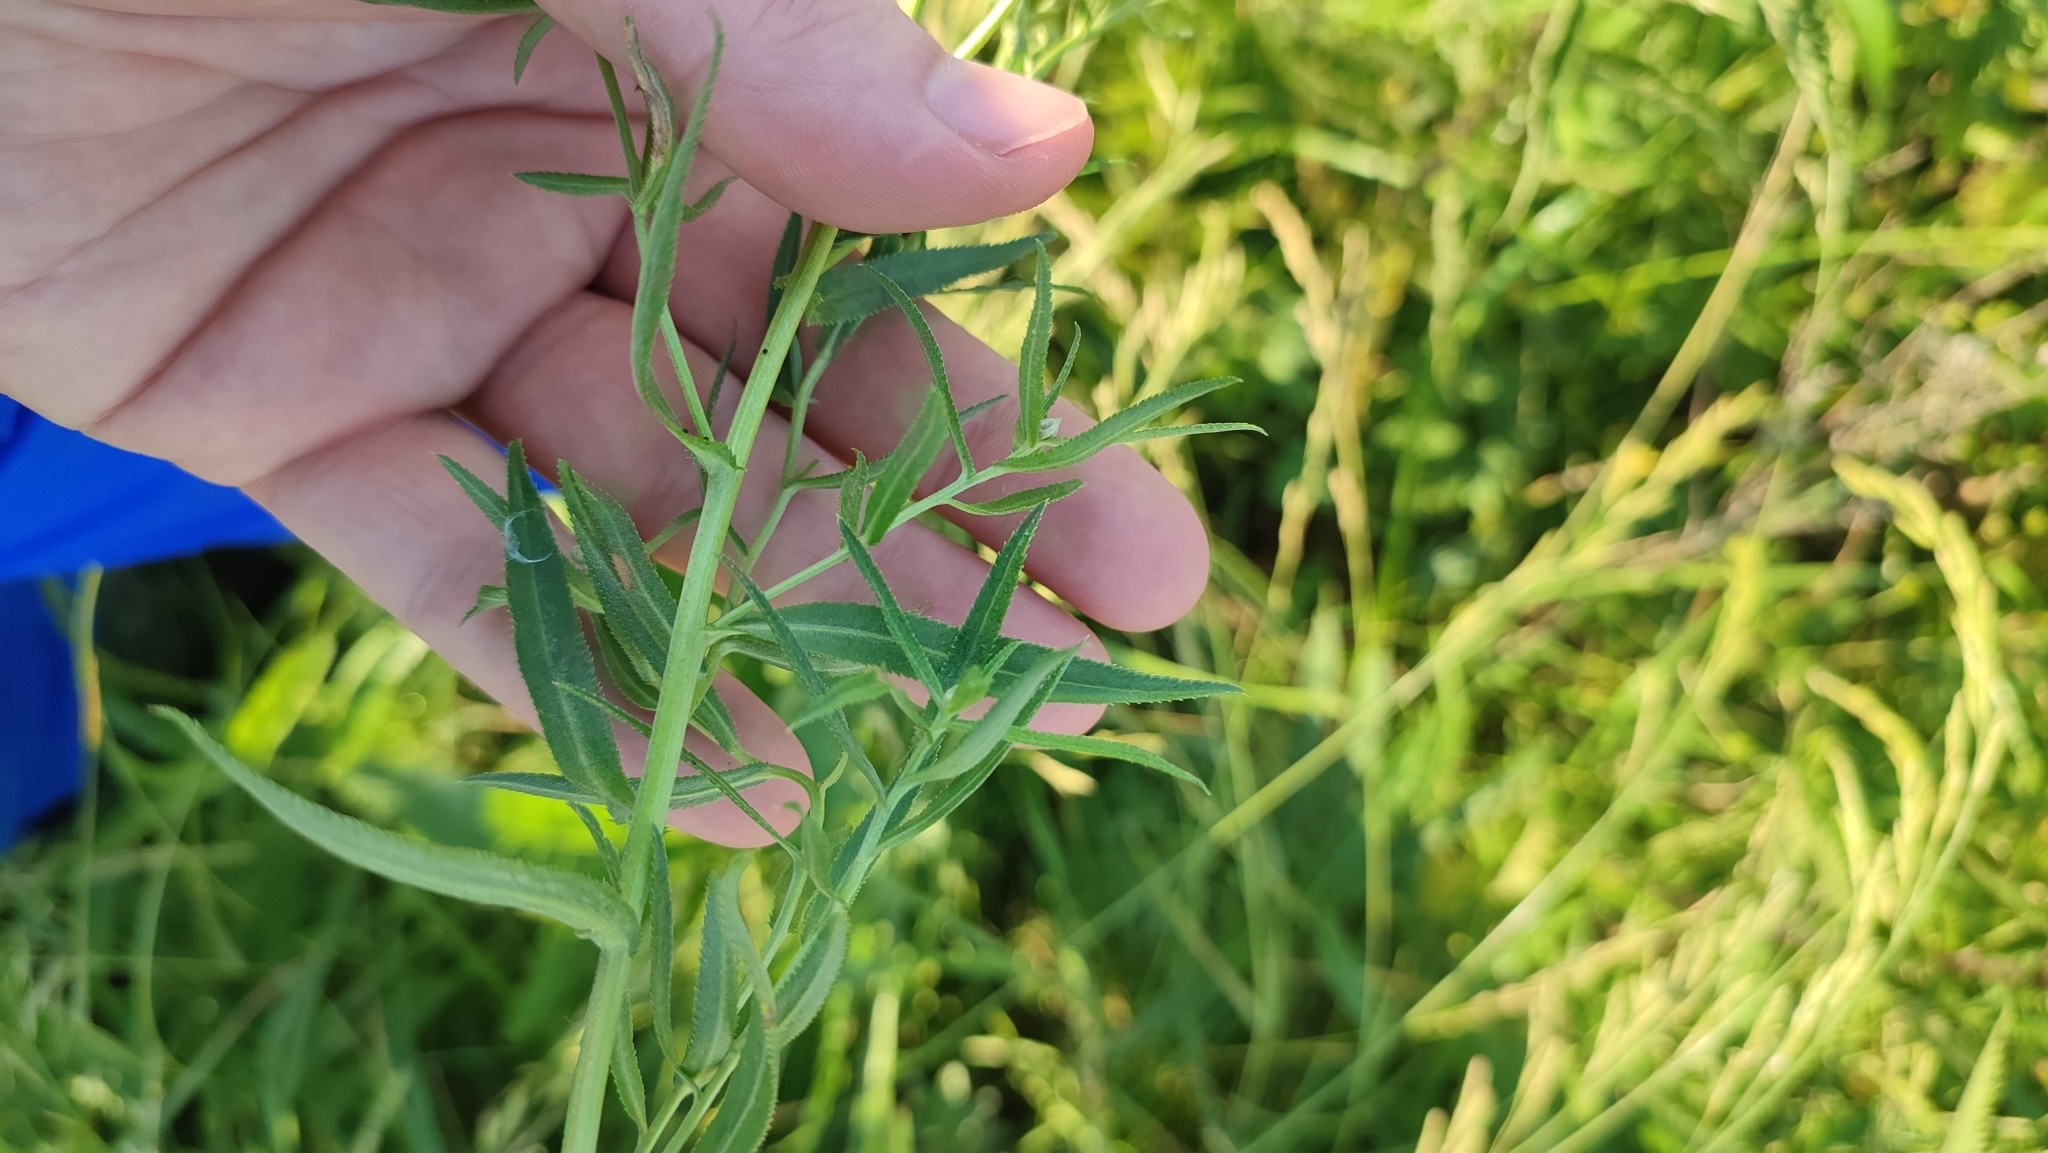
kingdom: Plantae
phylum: Tracheophyta
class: Magnoliopsida
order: Asterales
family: Asteraceae
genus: Achillea
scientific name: Achillea salicifolia
